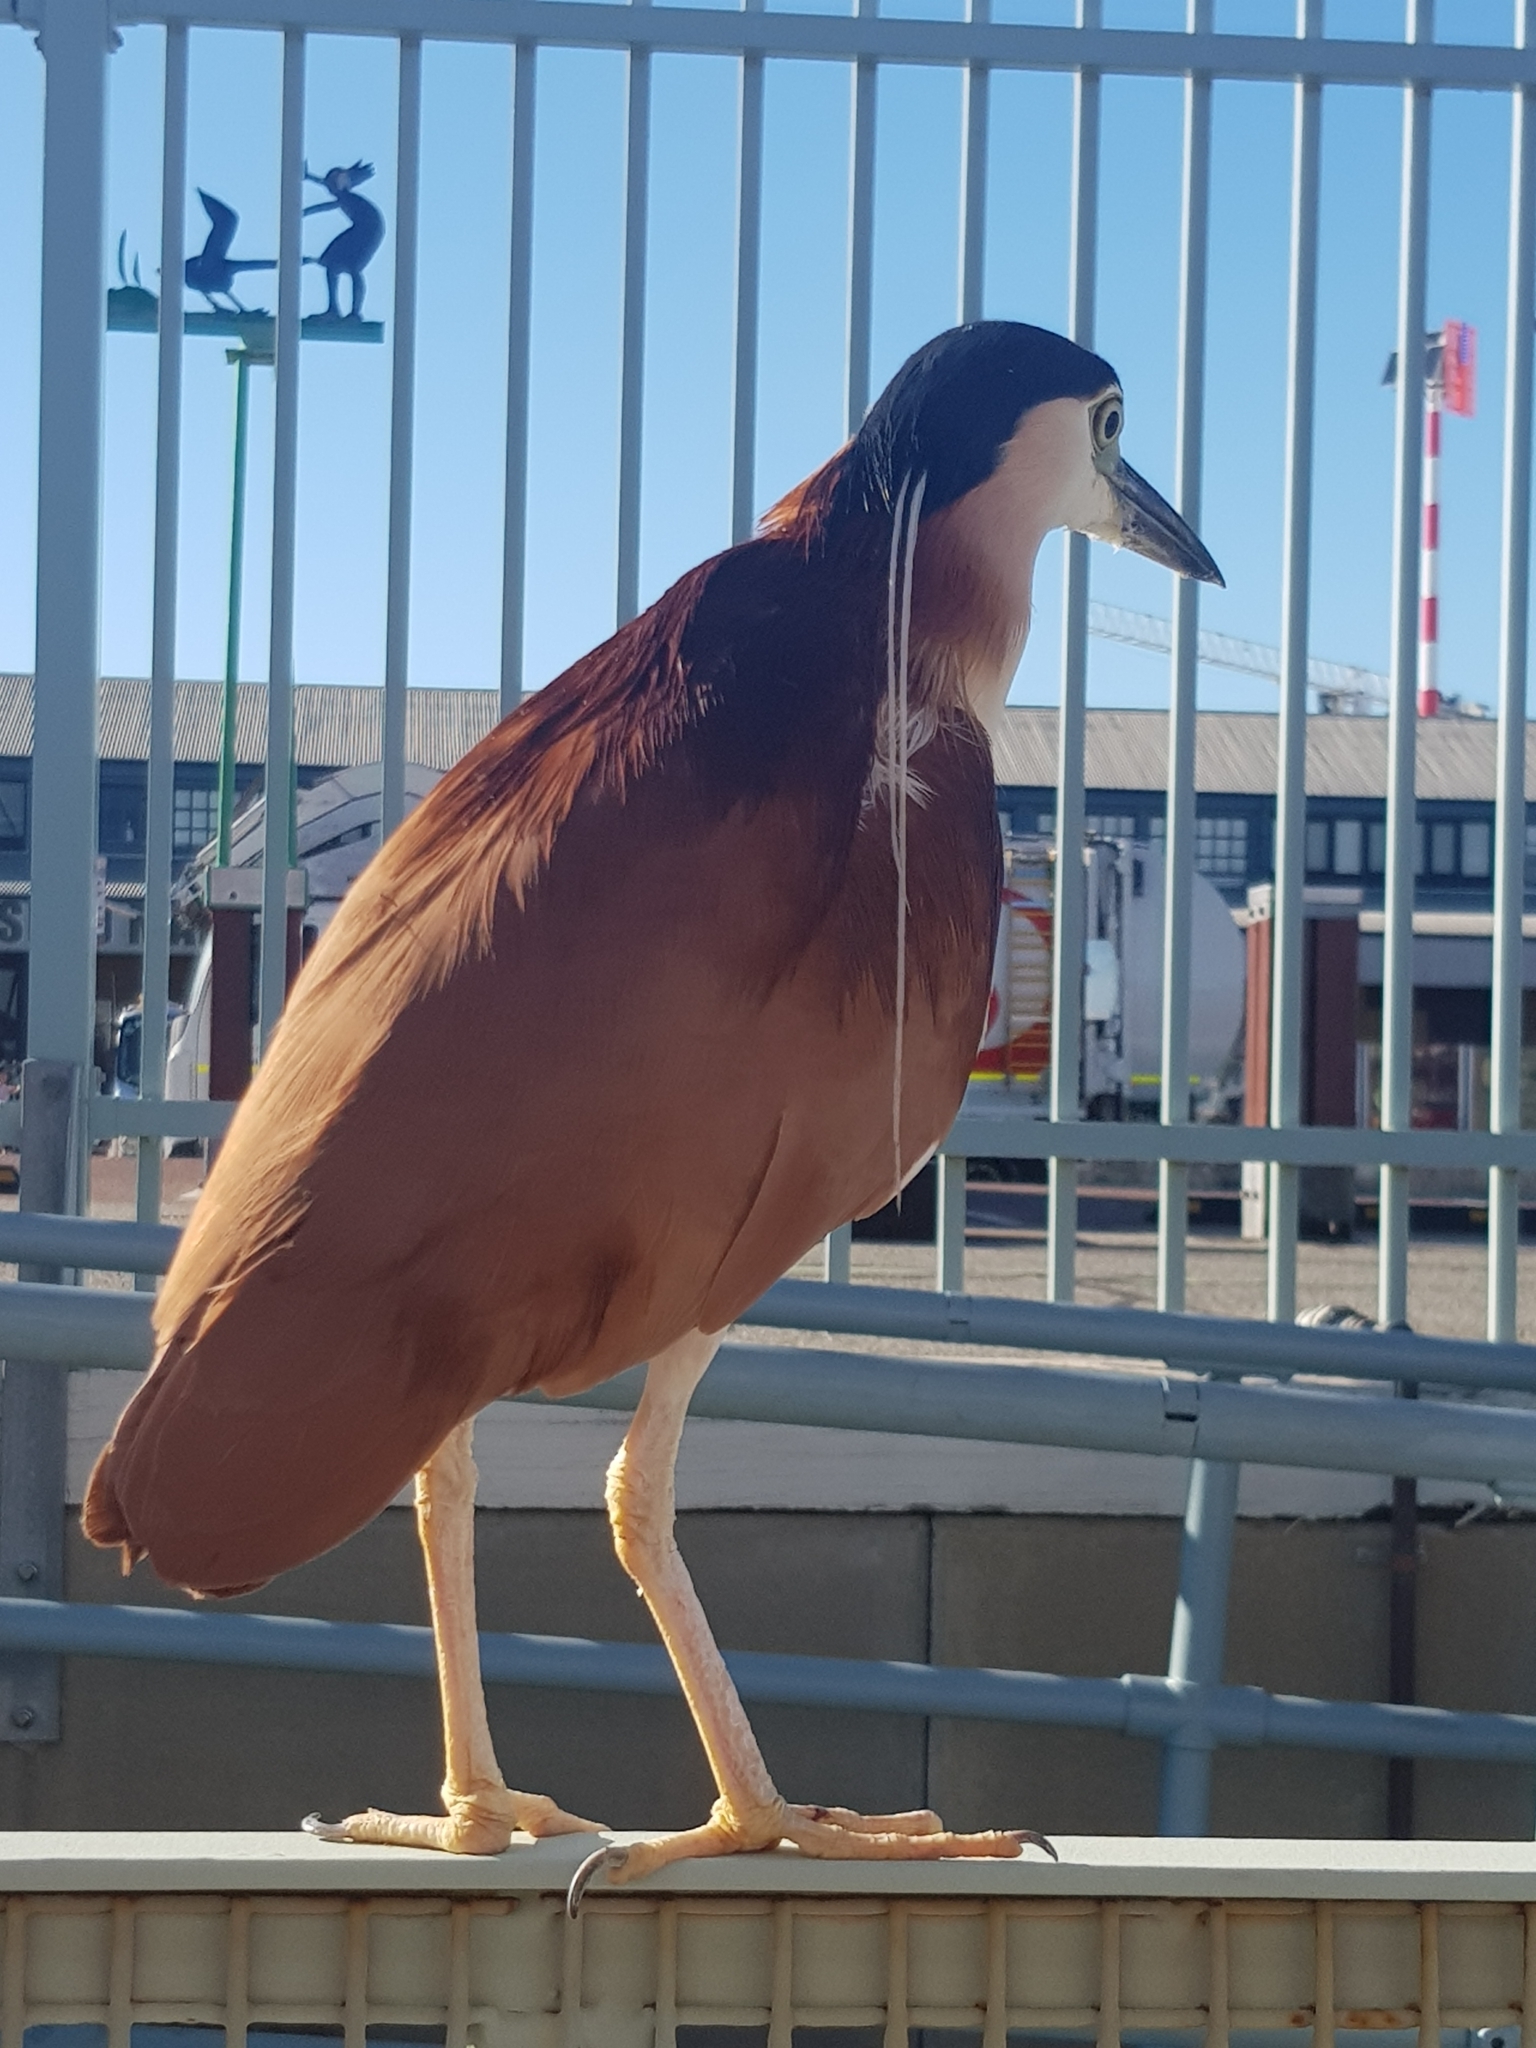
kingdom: Animalia
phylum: Chordata
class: Aves
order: Pelecaniformes
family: Ardeidae
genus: Nycticorax
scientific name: Nycticorax caledonicus
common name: Rufous night-heron
